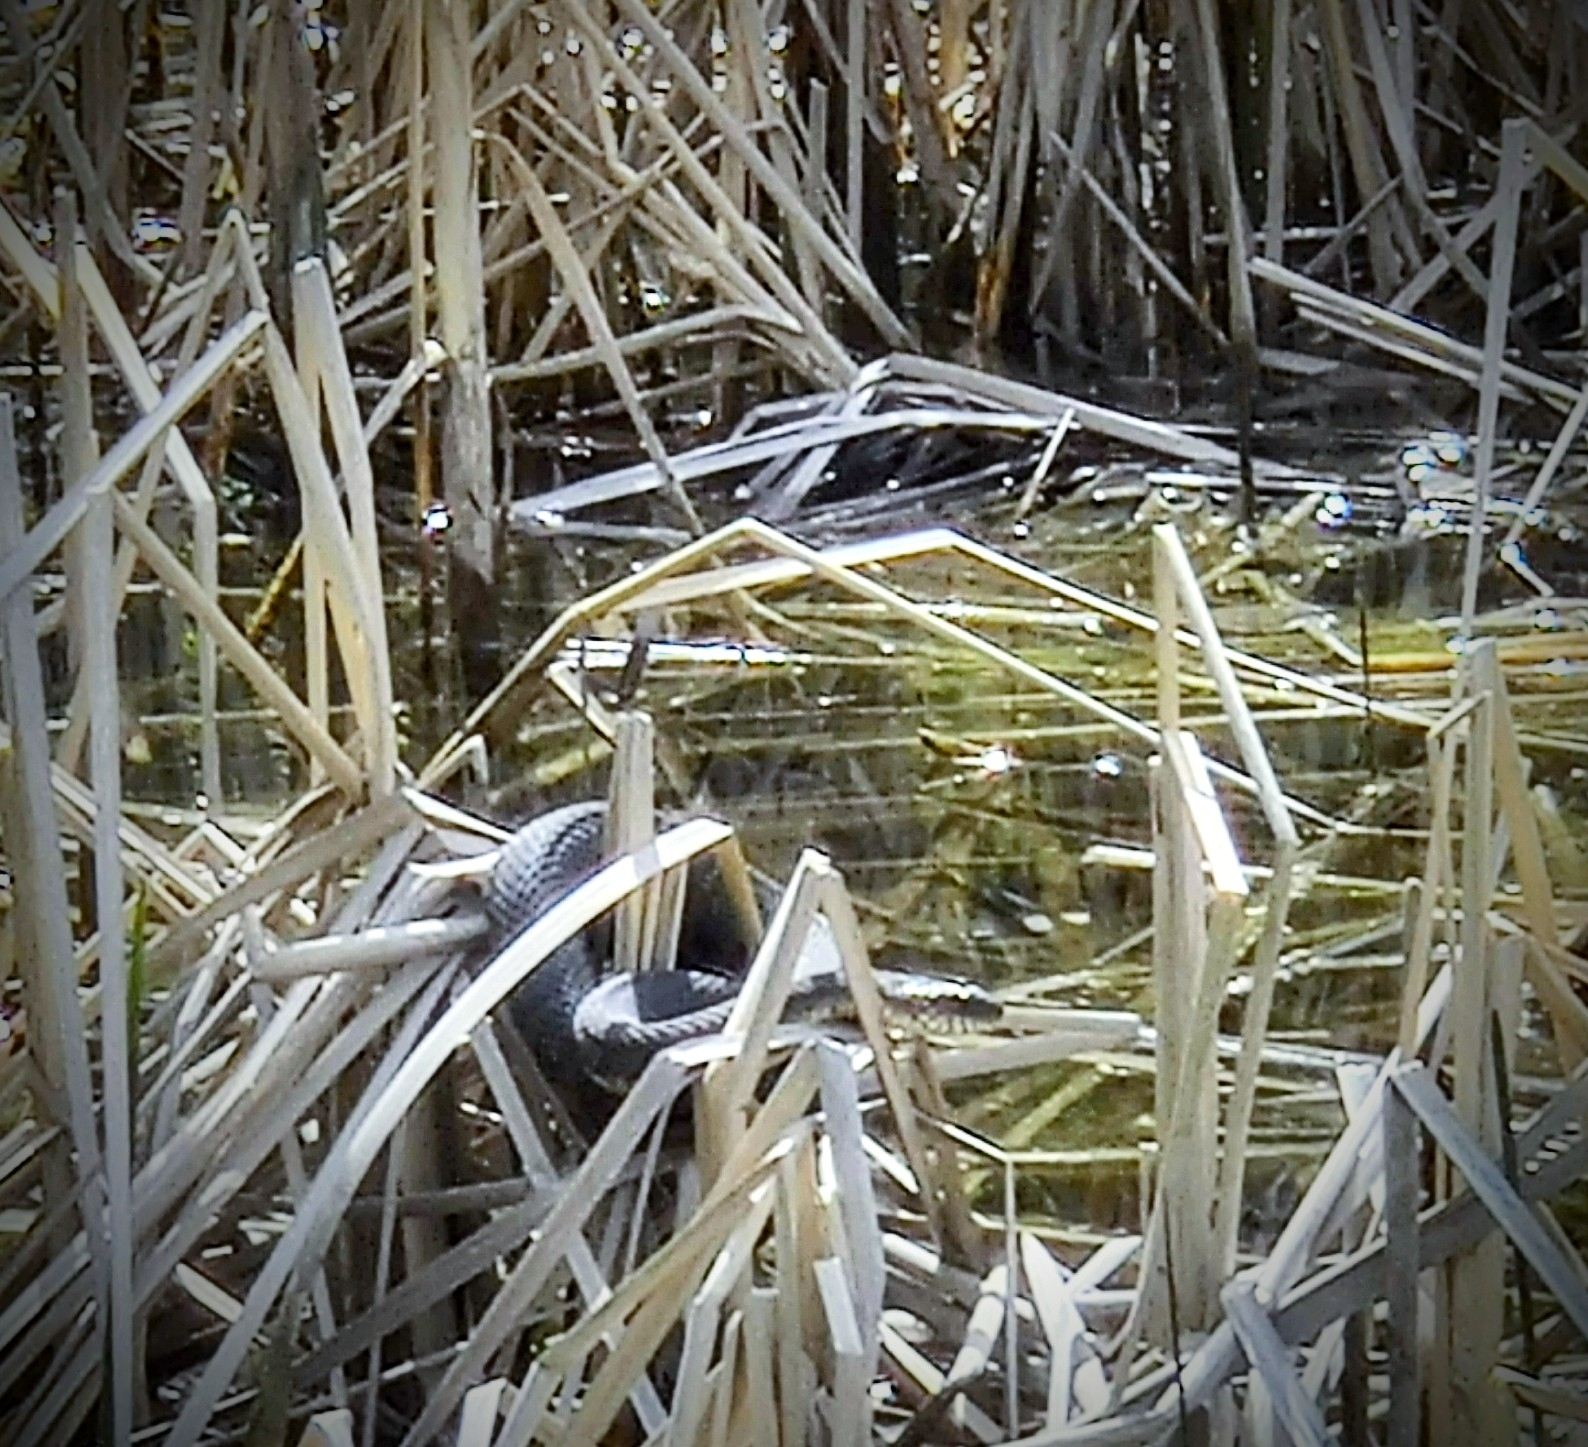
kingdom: Animalia
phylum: Chordata
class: Squamata
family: Colubridae
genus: Nerodia
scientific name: Nerodia sipedon
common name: Northern water snake
